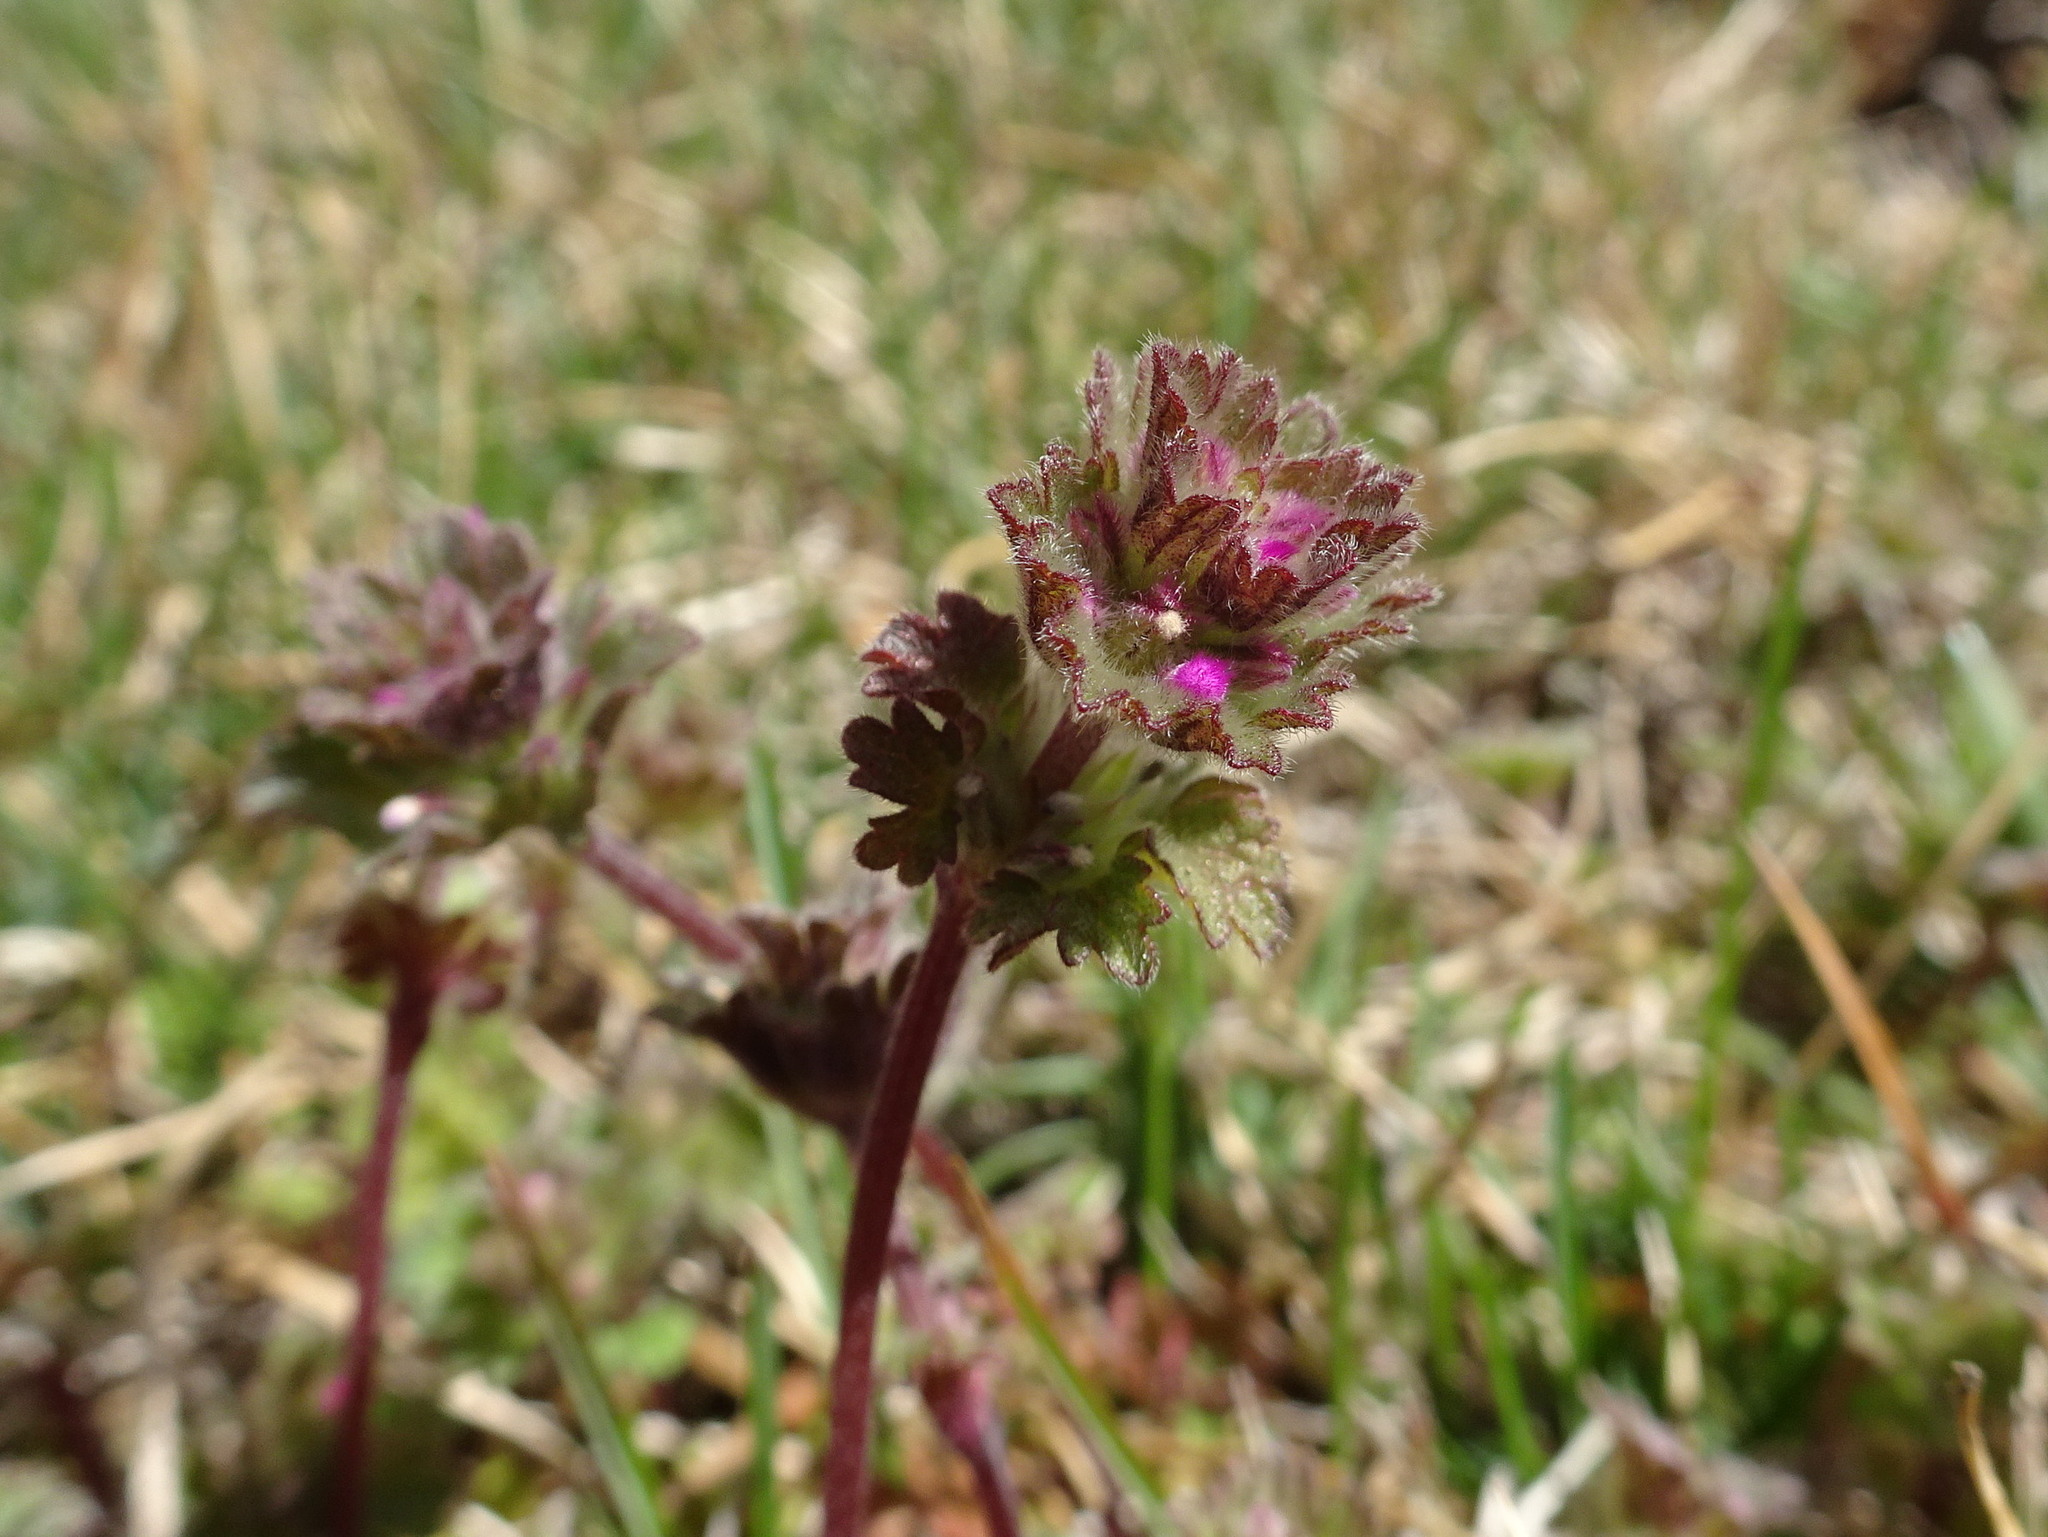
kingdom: Plantae
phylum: Tracheophyta
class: Magnoliopsida
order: Lamiales
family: Lamiaceae
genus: Lamium
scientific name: Lamium amplexicaule
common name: Henbit dead-nettle
